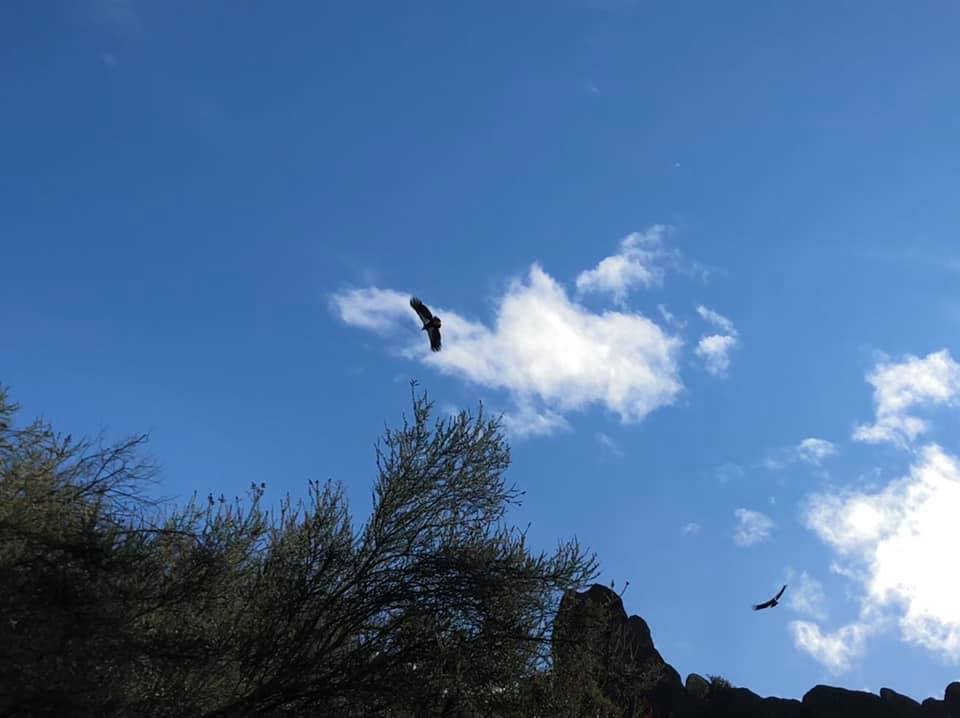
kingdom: Animalia
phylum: Chordata
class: Aves
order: Accipitriformes
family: Cathartidae
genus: Gymnogyps
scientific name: Gymnogyps californianus
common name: California condor
